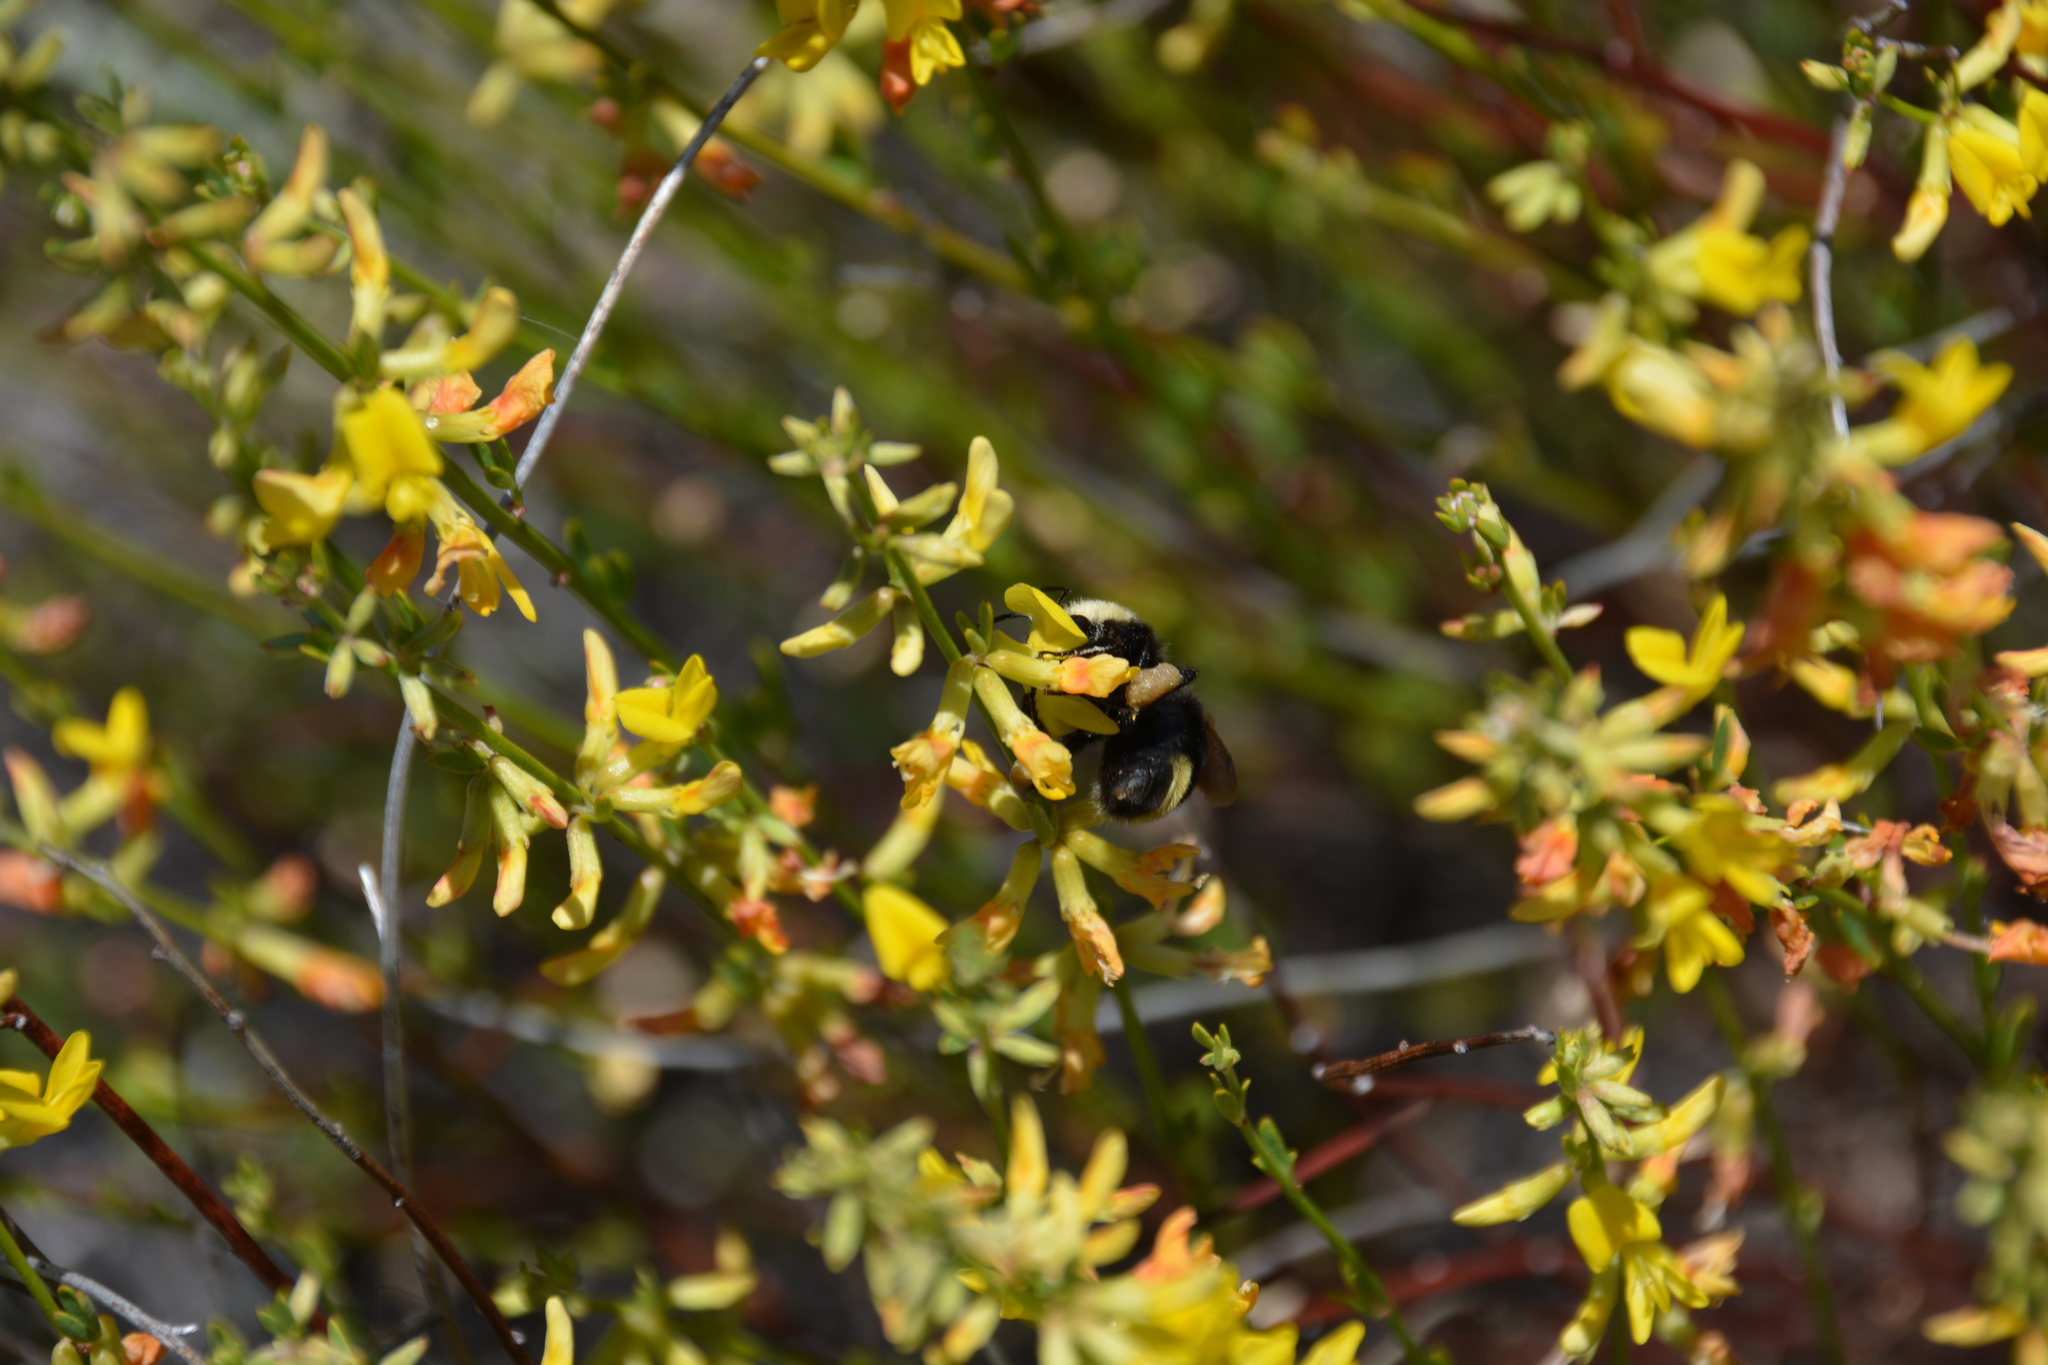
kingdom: Animalia
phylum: Arthropoda
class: Insecta
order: Hymenoptera
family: Apidae
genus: Bombus
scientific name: Bombus vosnesenskii
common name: Vosnesensky bumble bee
